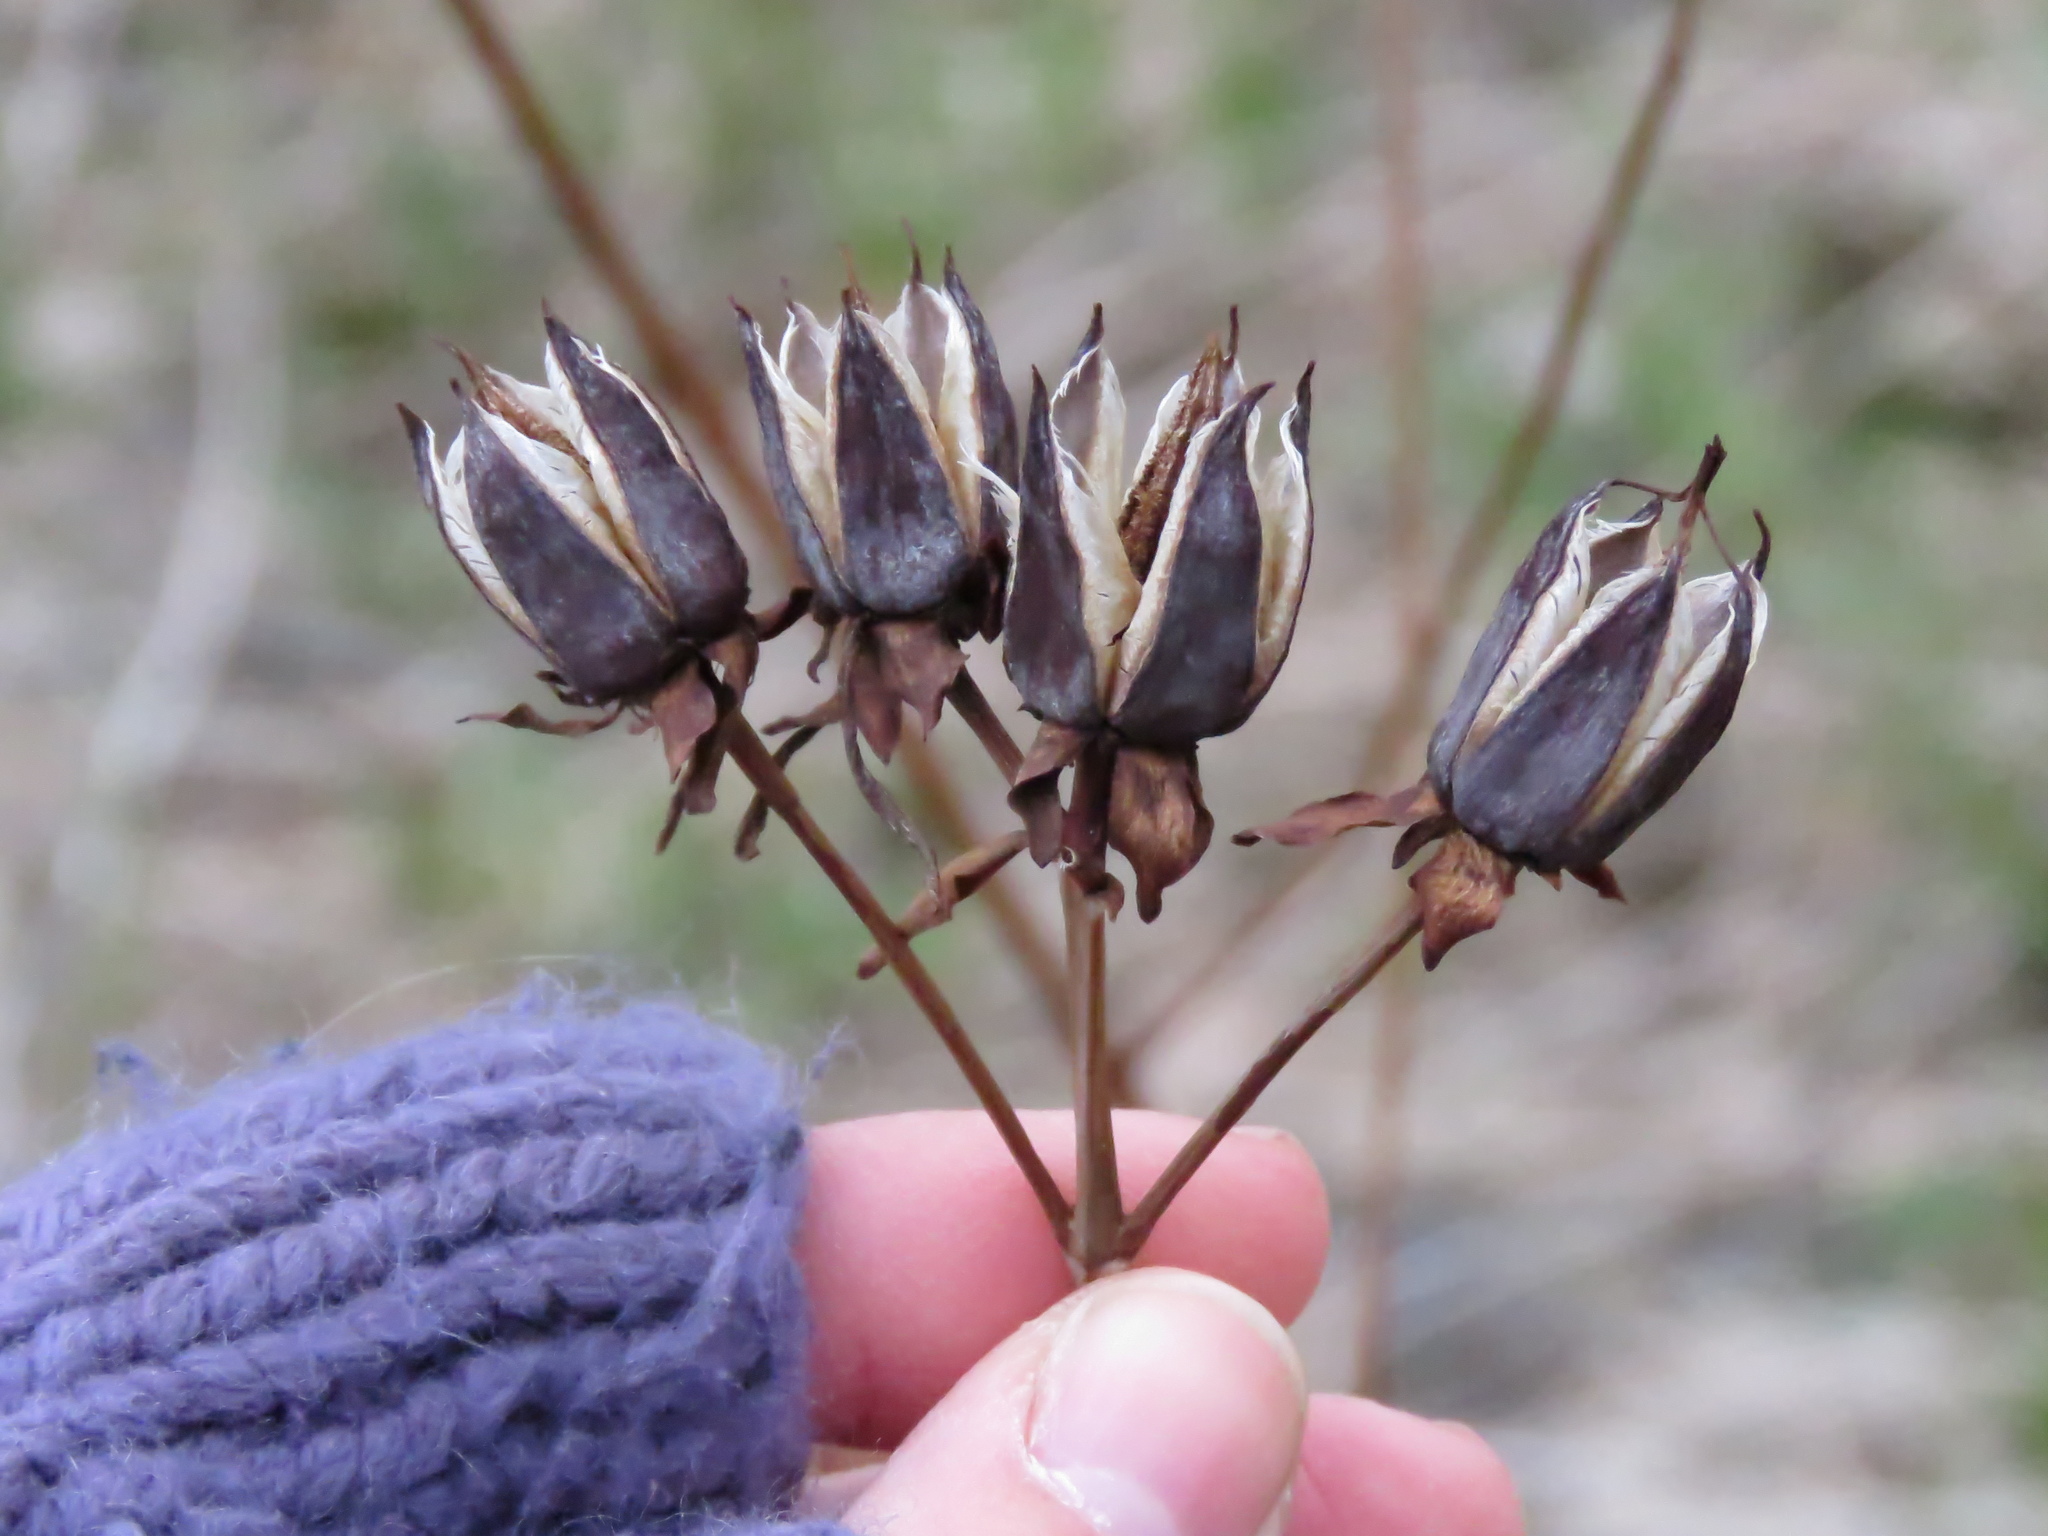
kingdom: Plantae
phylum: Tracheophyta
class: Magnoliopsida
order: Malpighiales
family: Hypericaceae
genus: Hypericum
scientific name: Hypericum ascyron
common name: Giant st. john's-wort
